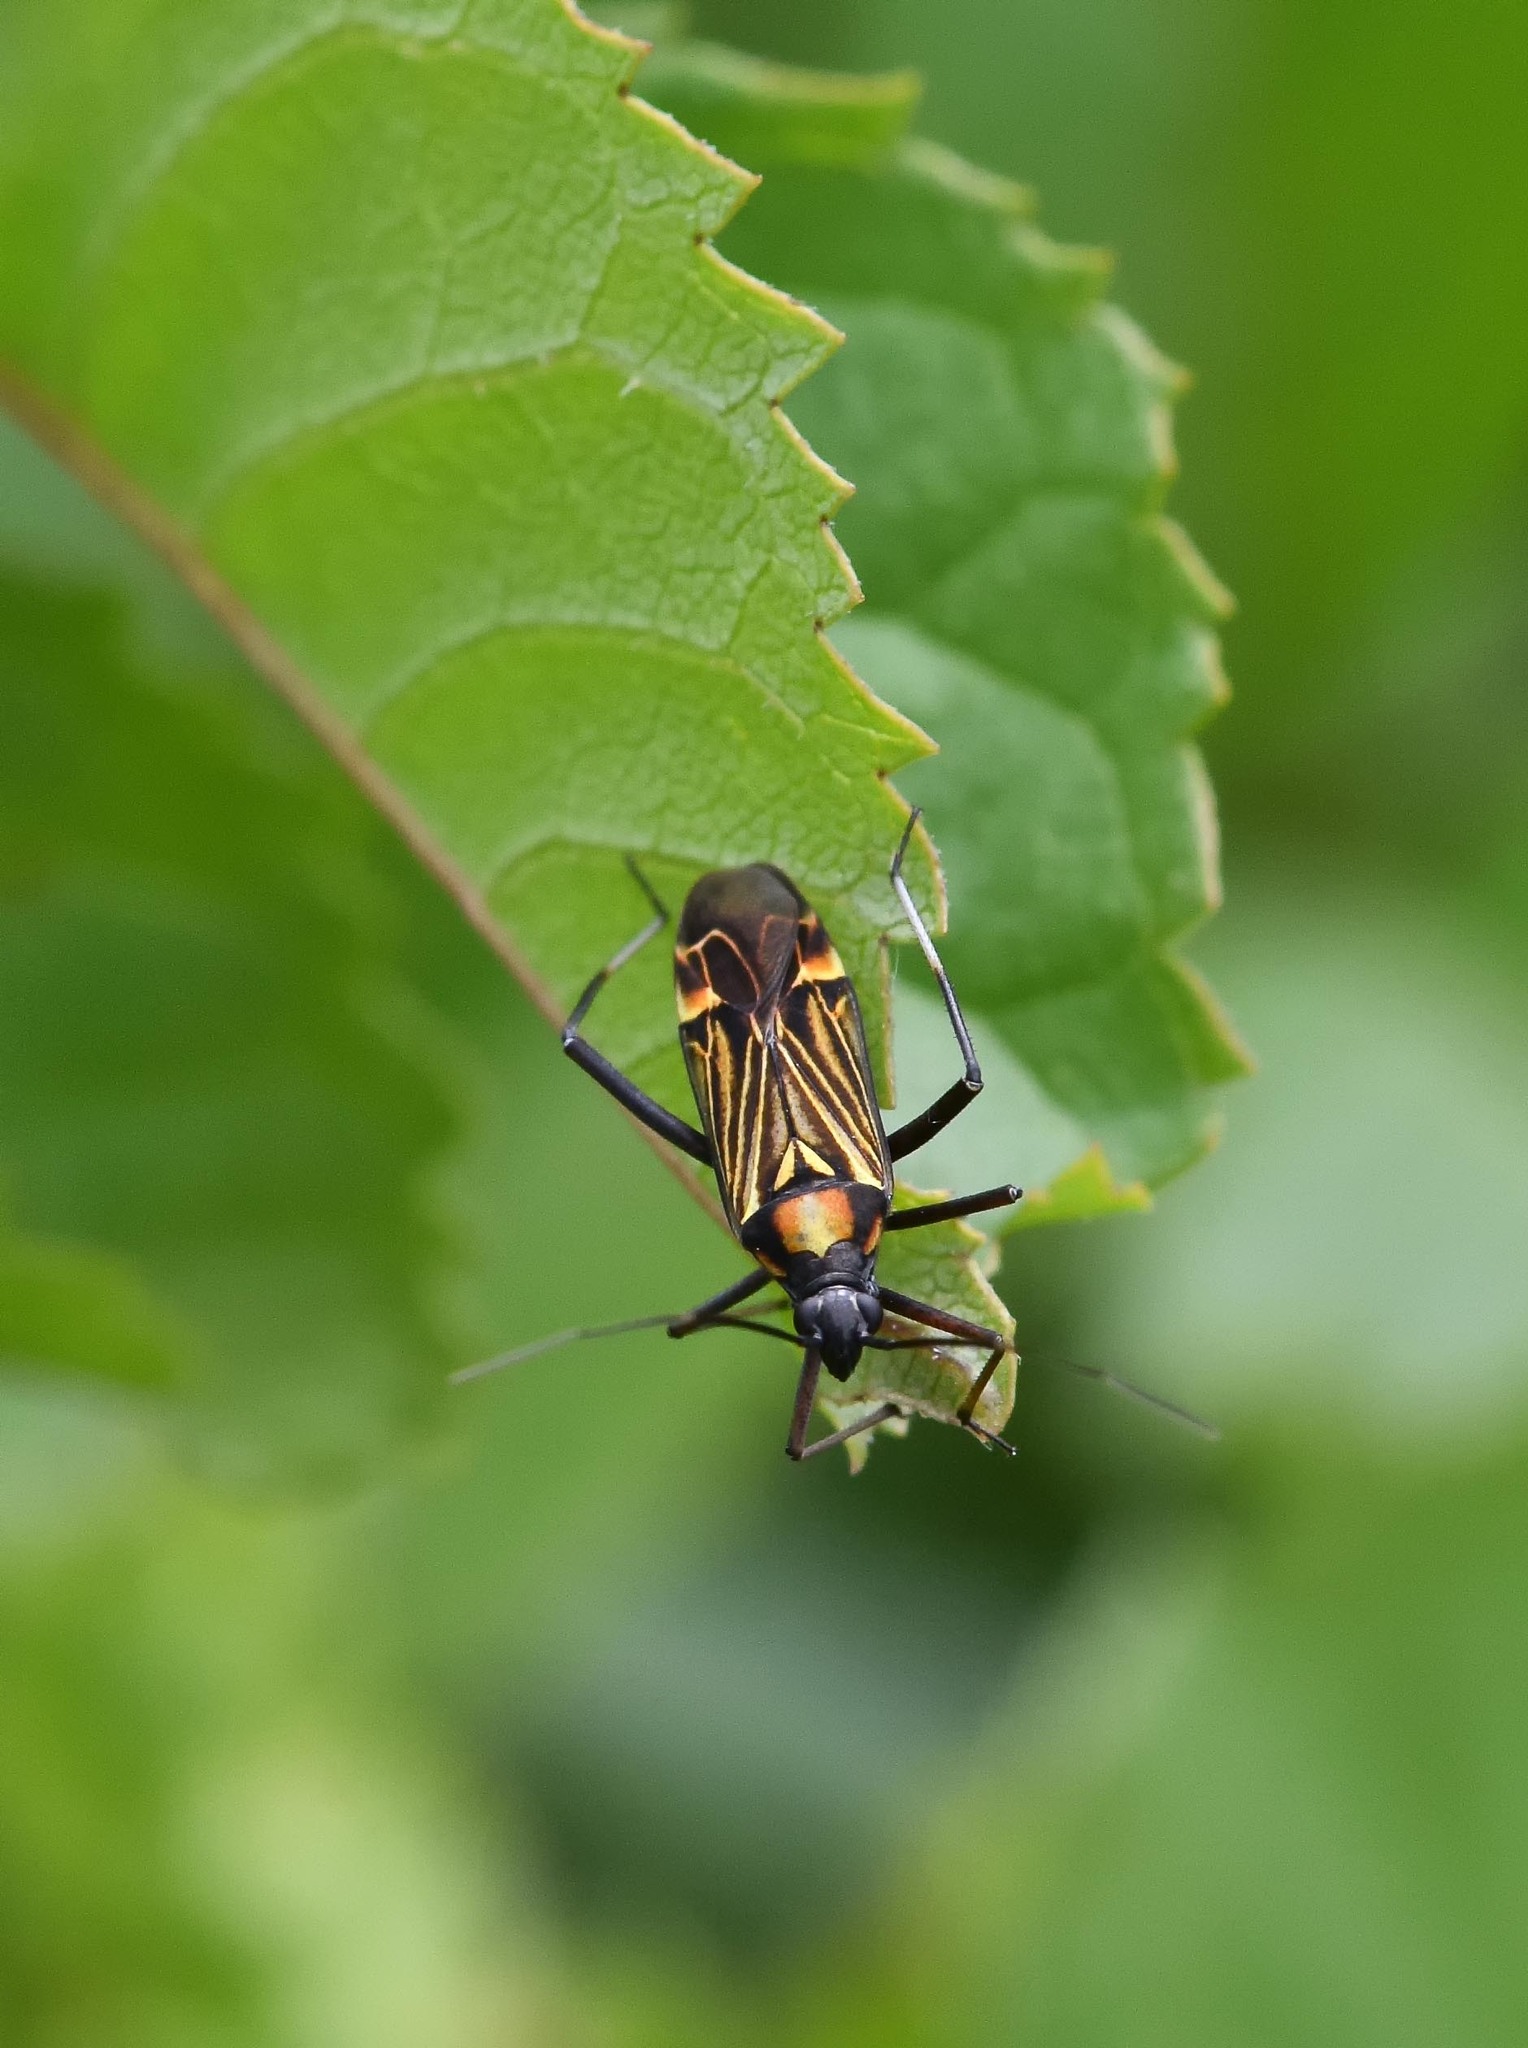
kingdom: Animalia
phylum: Arthropoda
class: Insecta
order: Hemiptera
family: Miridae
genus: Miris
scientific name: Miris striatus
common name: Fine streaked bugkin
